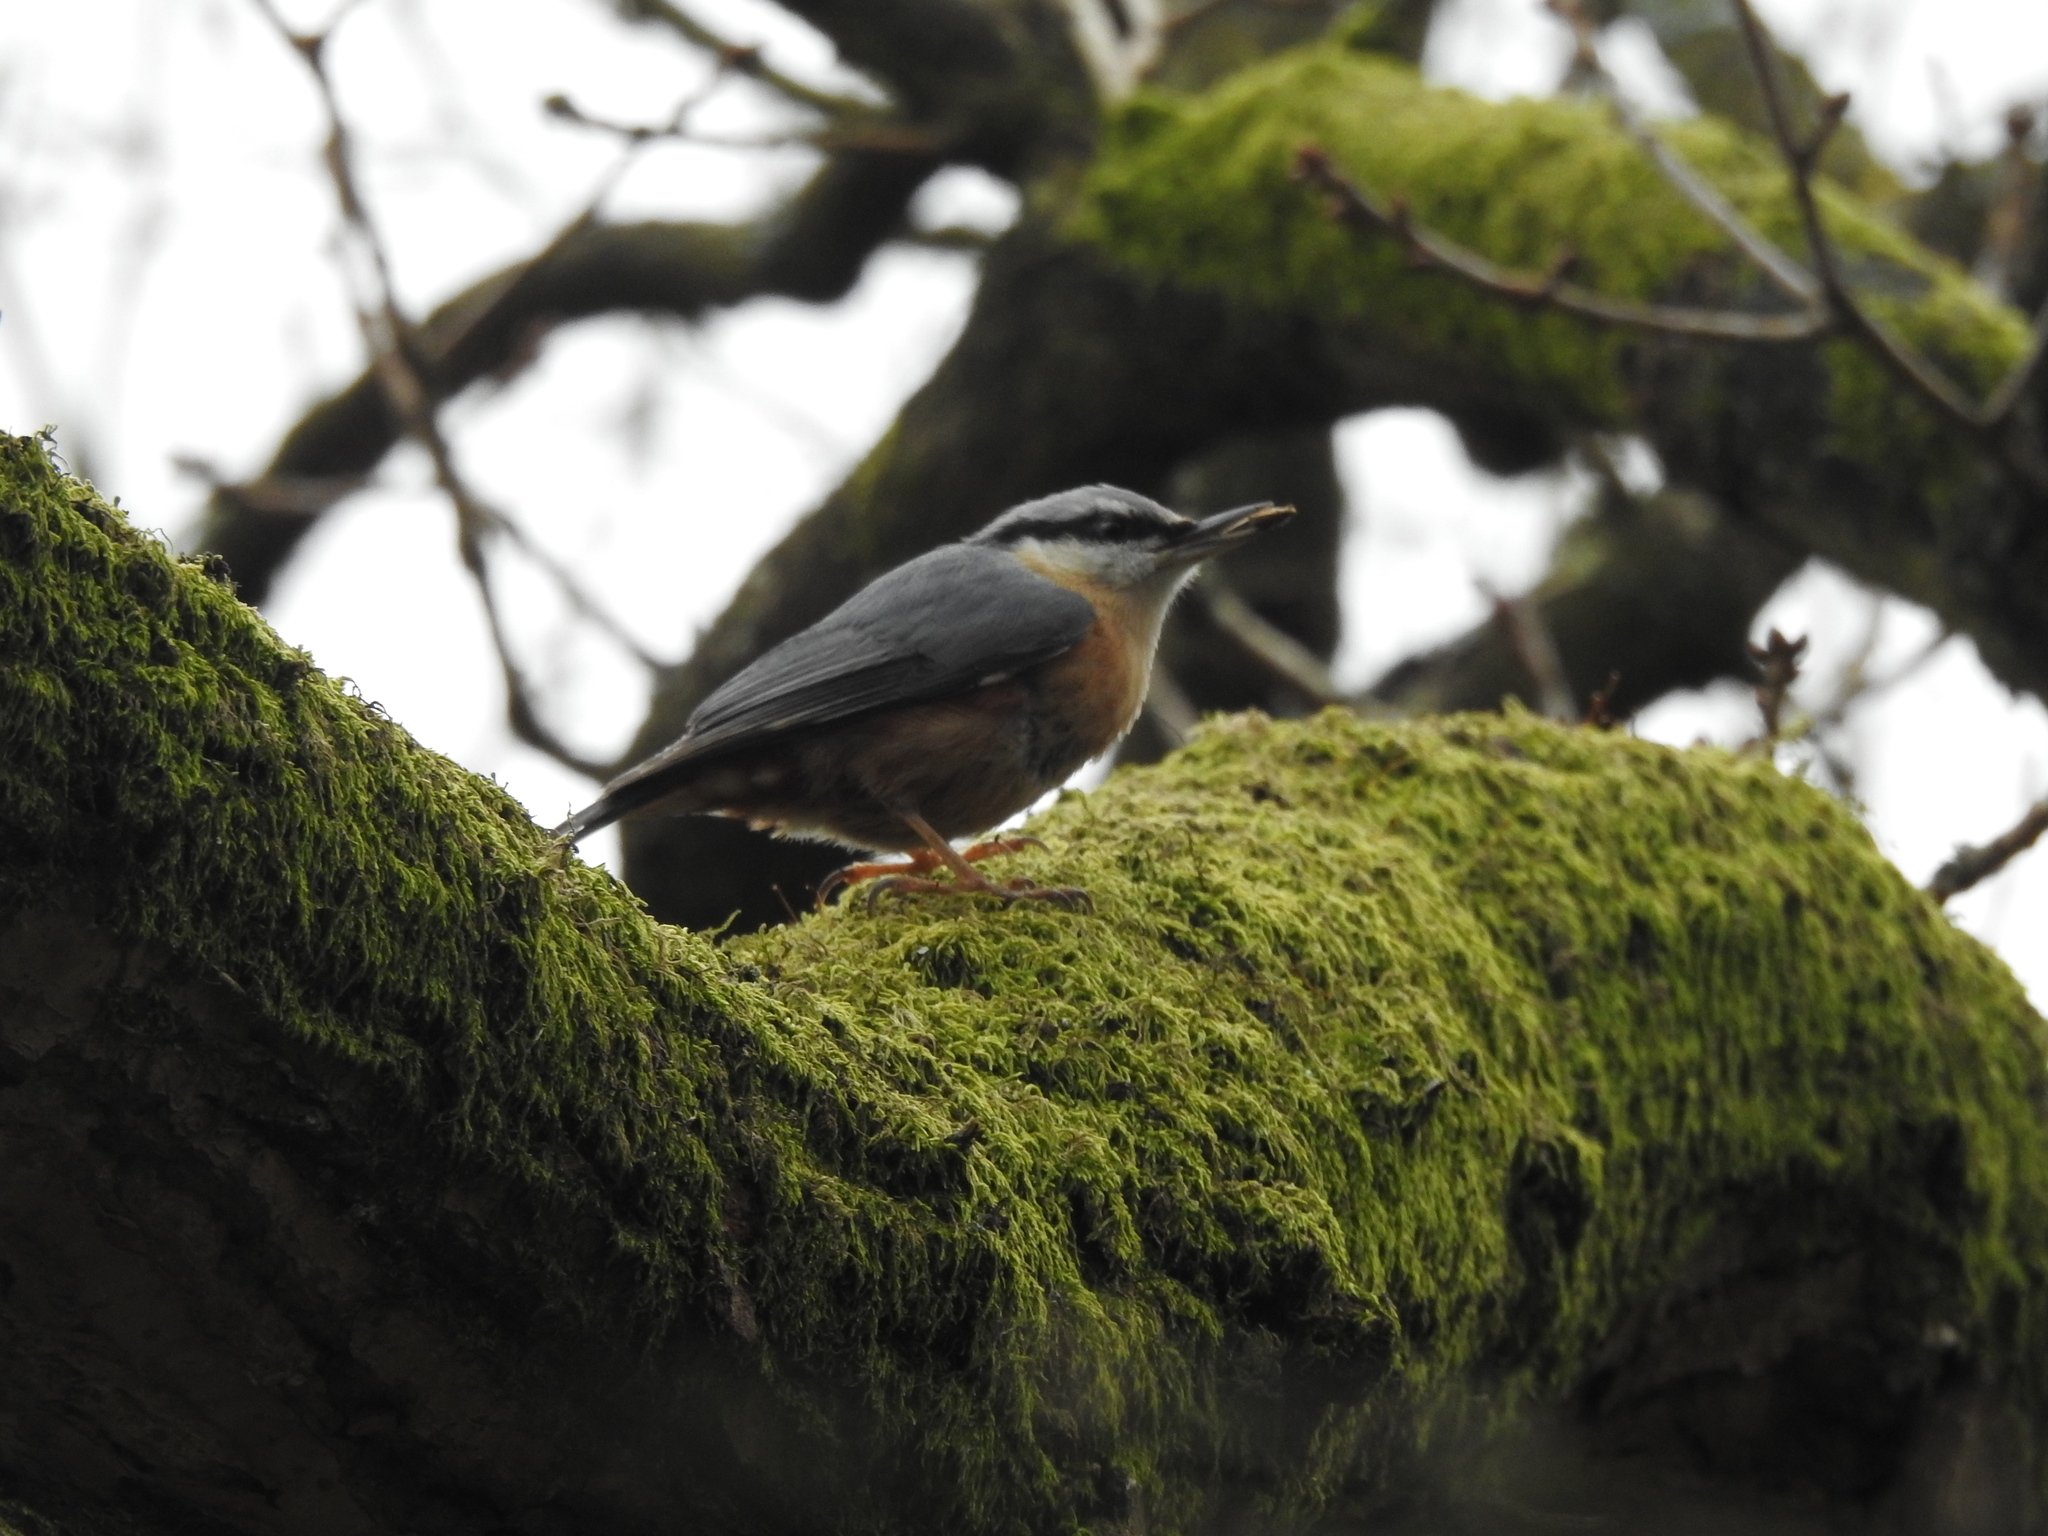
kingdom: Animalia
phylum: Chordata
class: Aves
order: Passeriformes
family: Sittidae
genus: Sitta
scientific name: Sitta europaea
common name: Eurasian nuthatch
